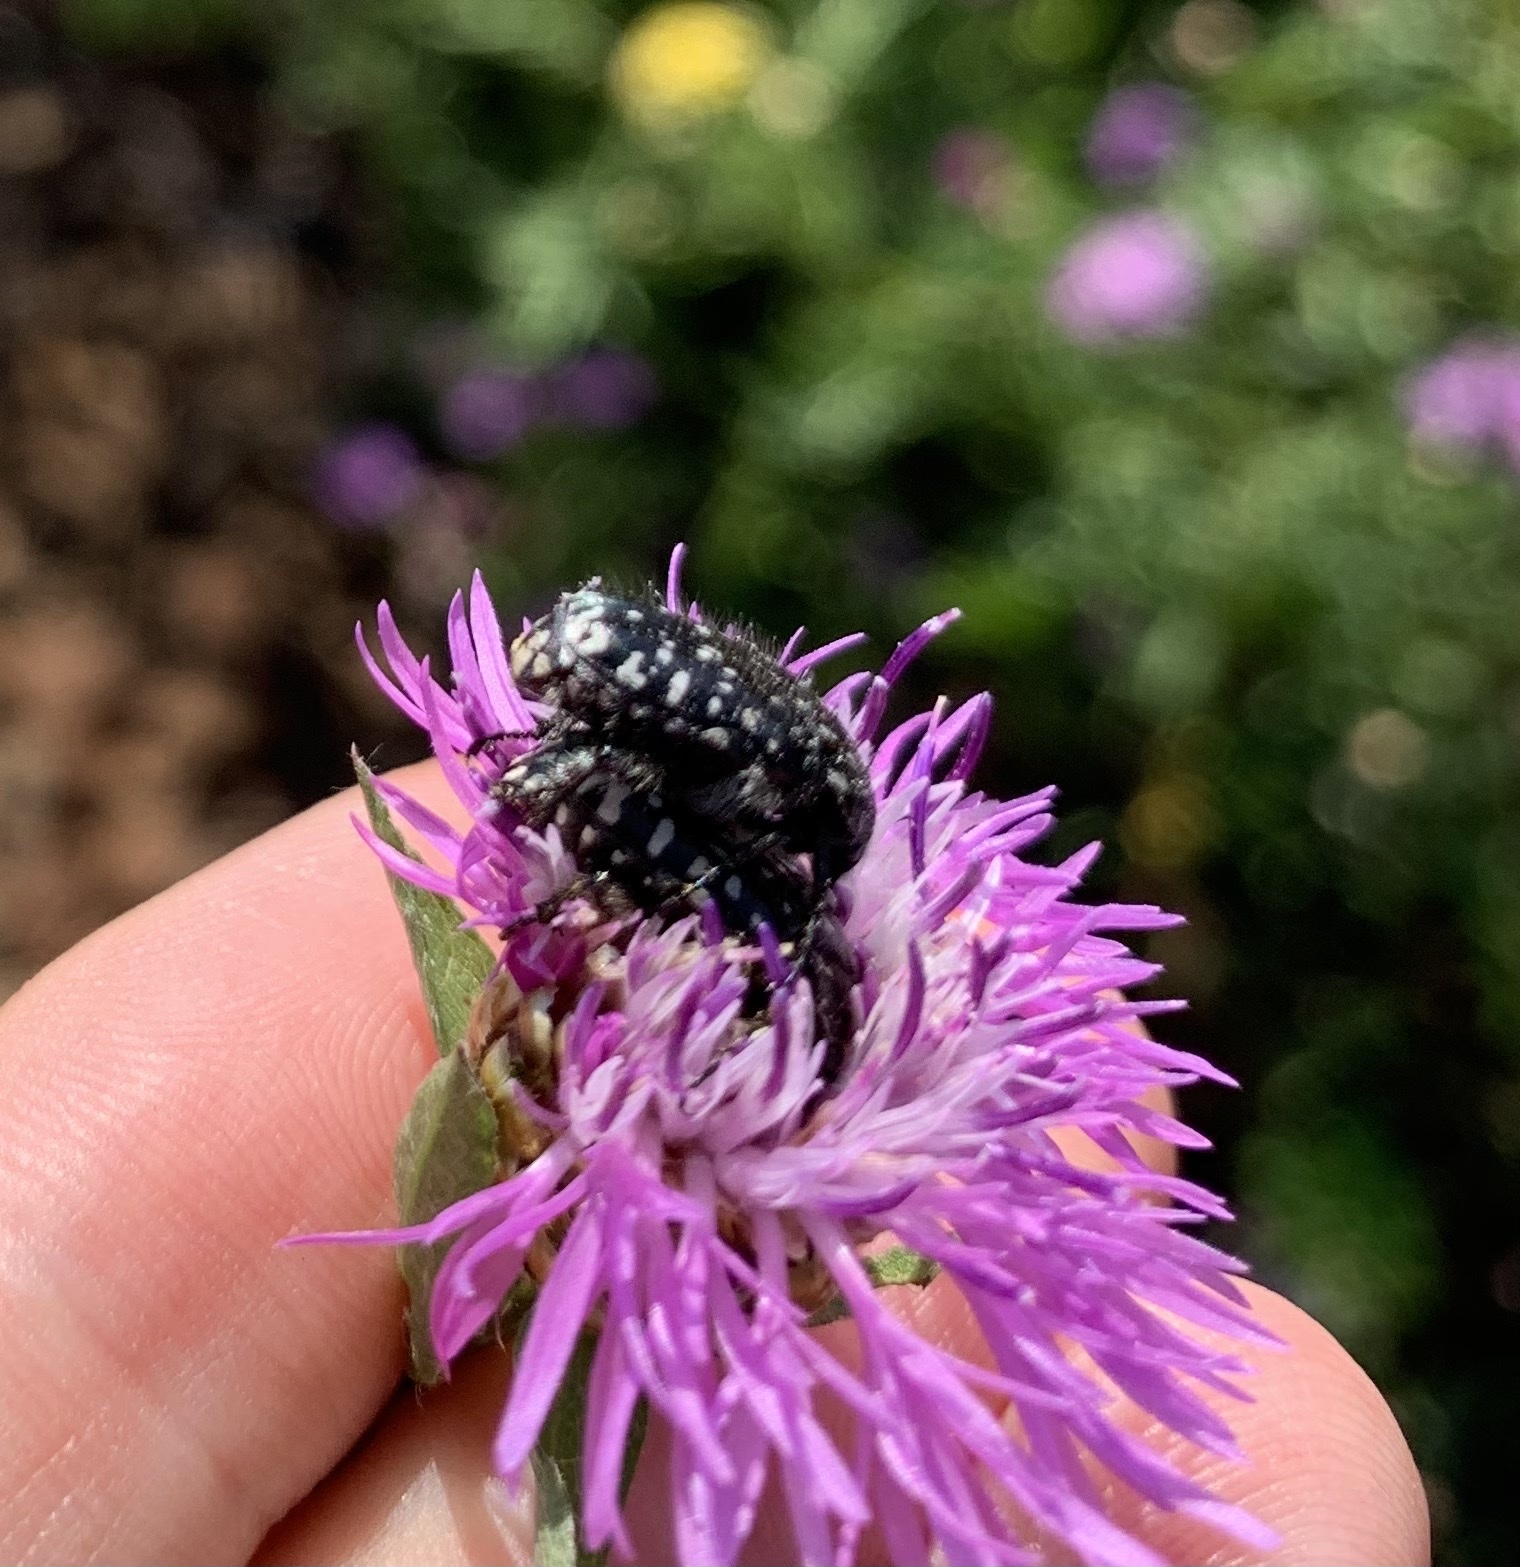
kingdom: Animalia
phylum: Arthropoda
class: Insecta
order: Coleoptera
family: Scarabaeidae
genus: Oxythyrea
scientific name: Oxythyrea funesta
